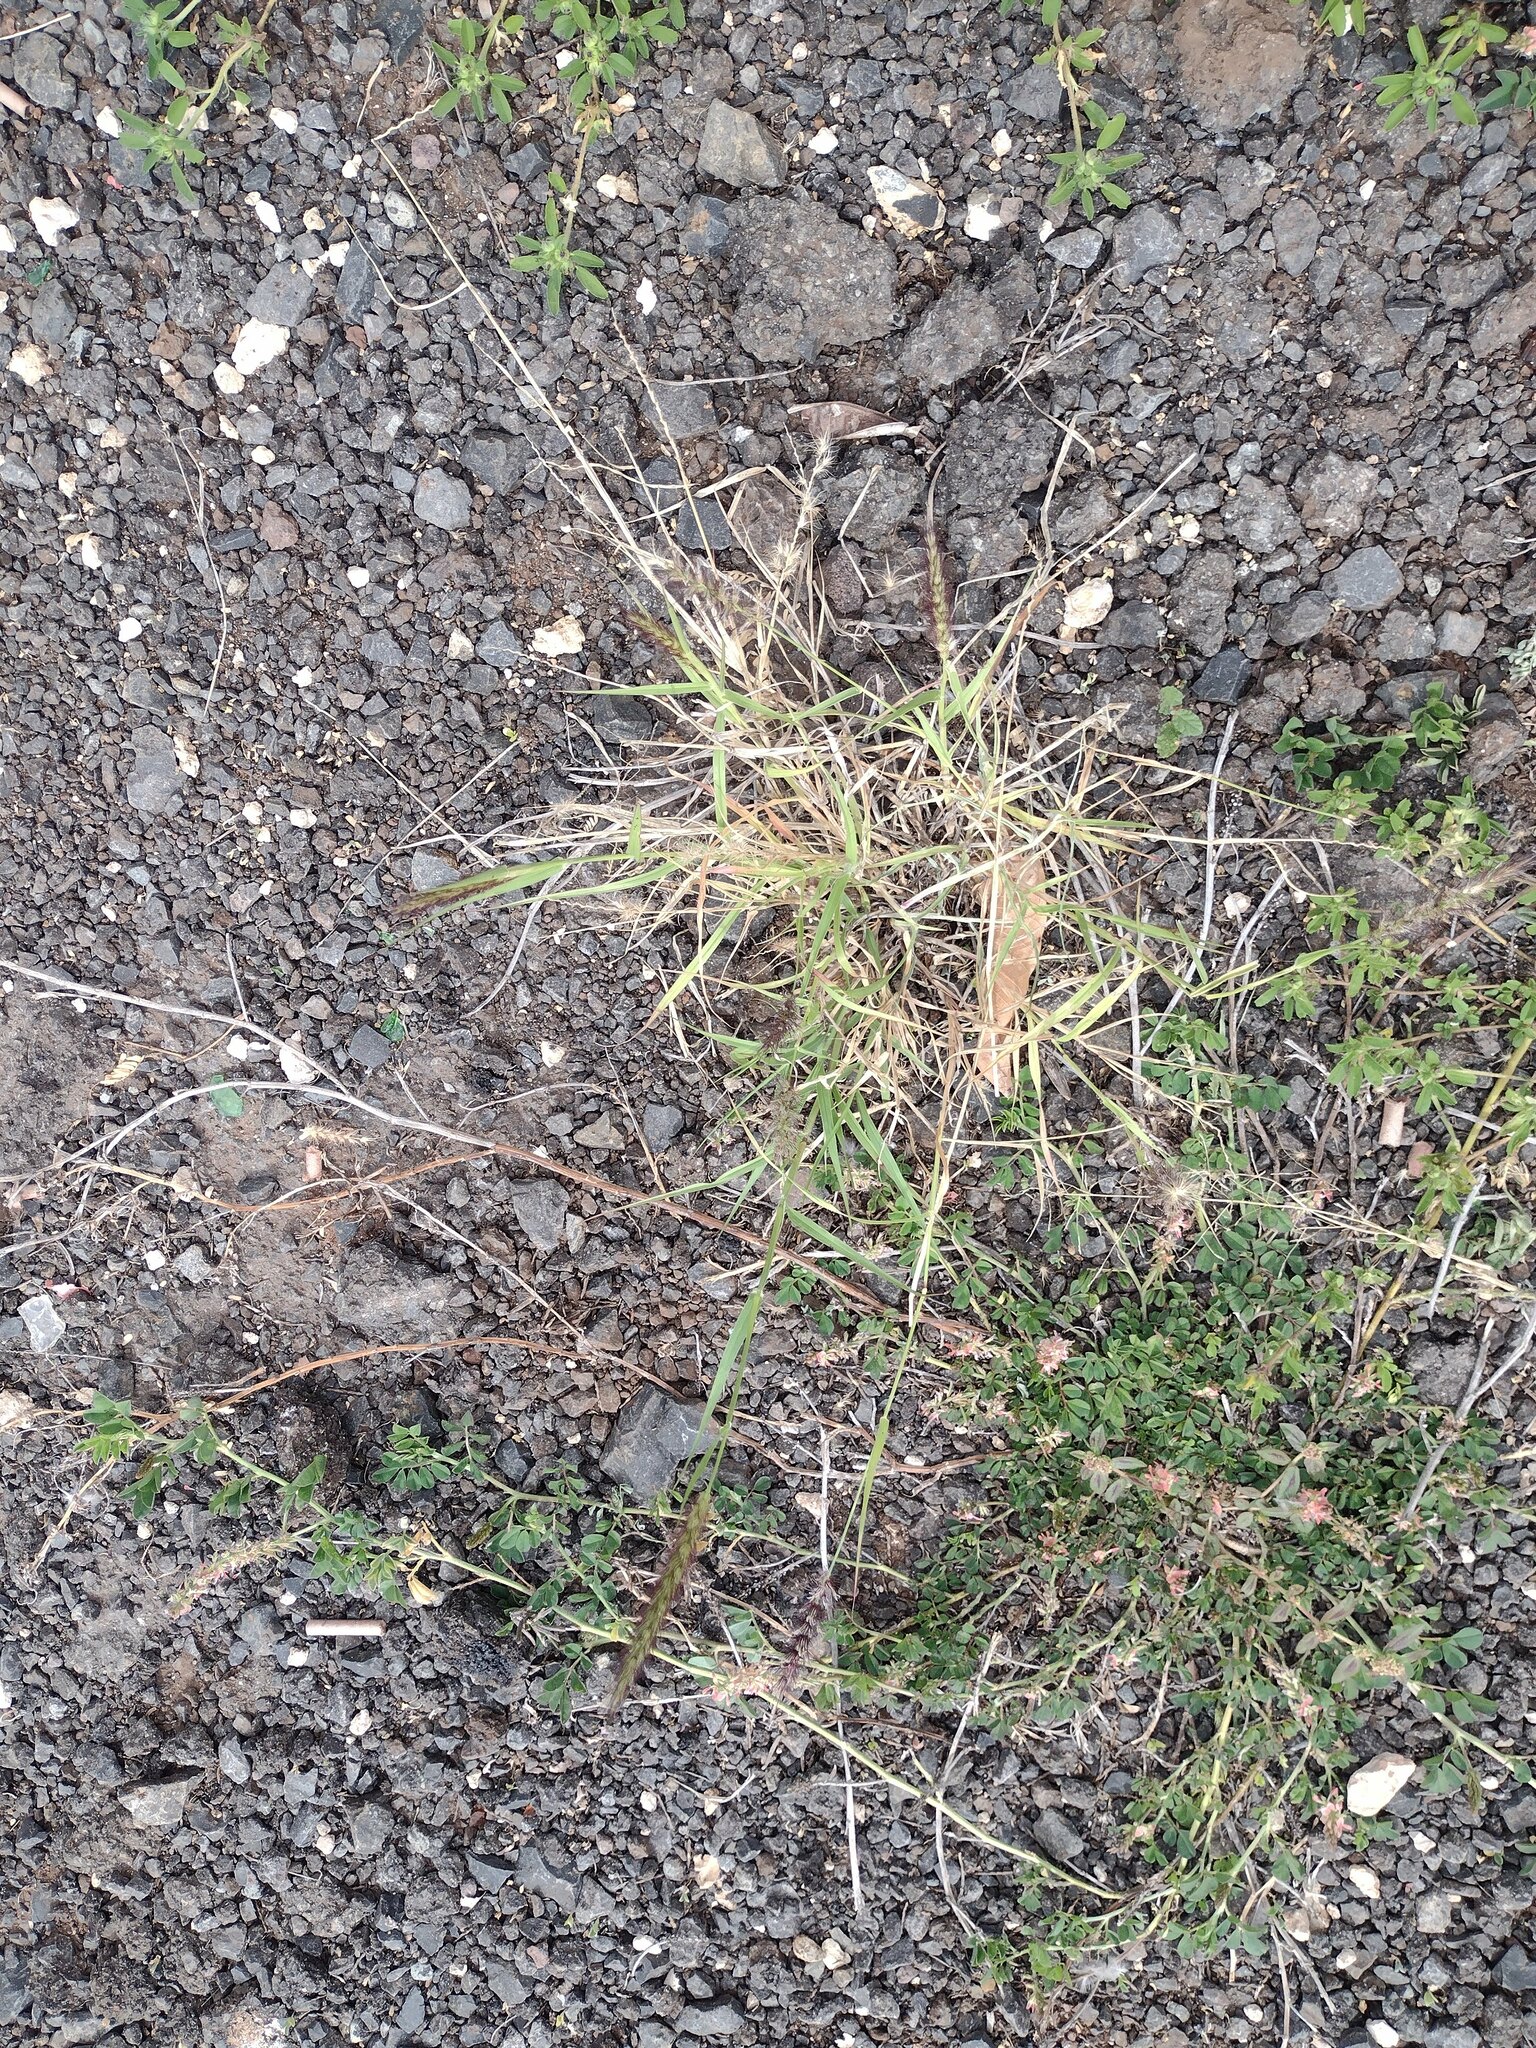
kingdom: Plantae
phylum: Tracheophyta
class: Liliopsida
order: Poales
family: Poaceae
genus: Cenchrus
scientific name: Cenchrus ciliaris
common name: Buffelgrass
